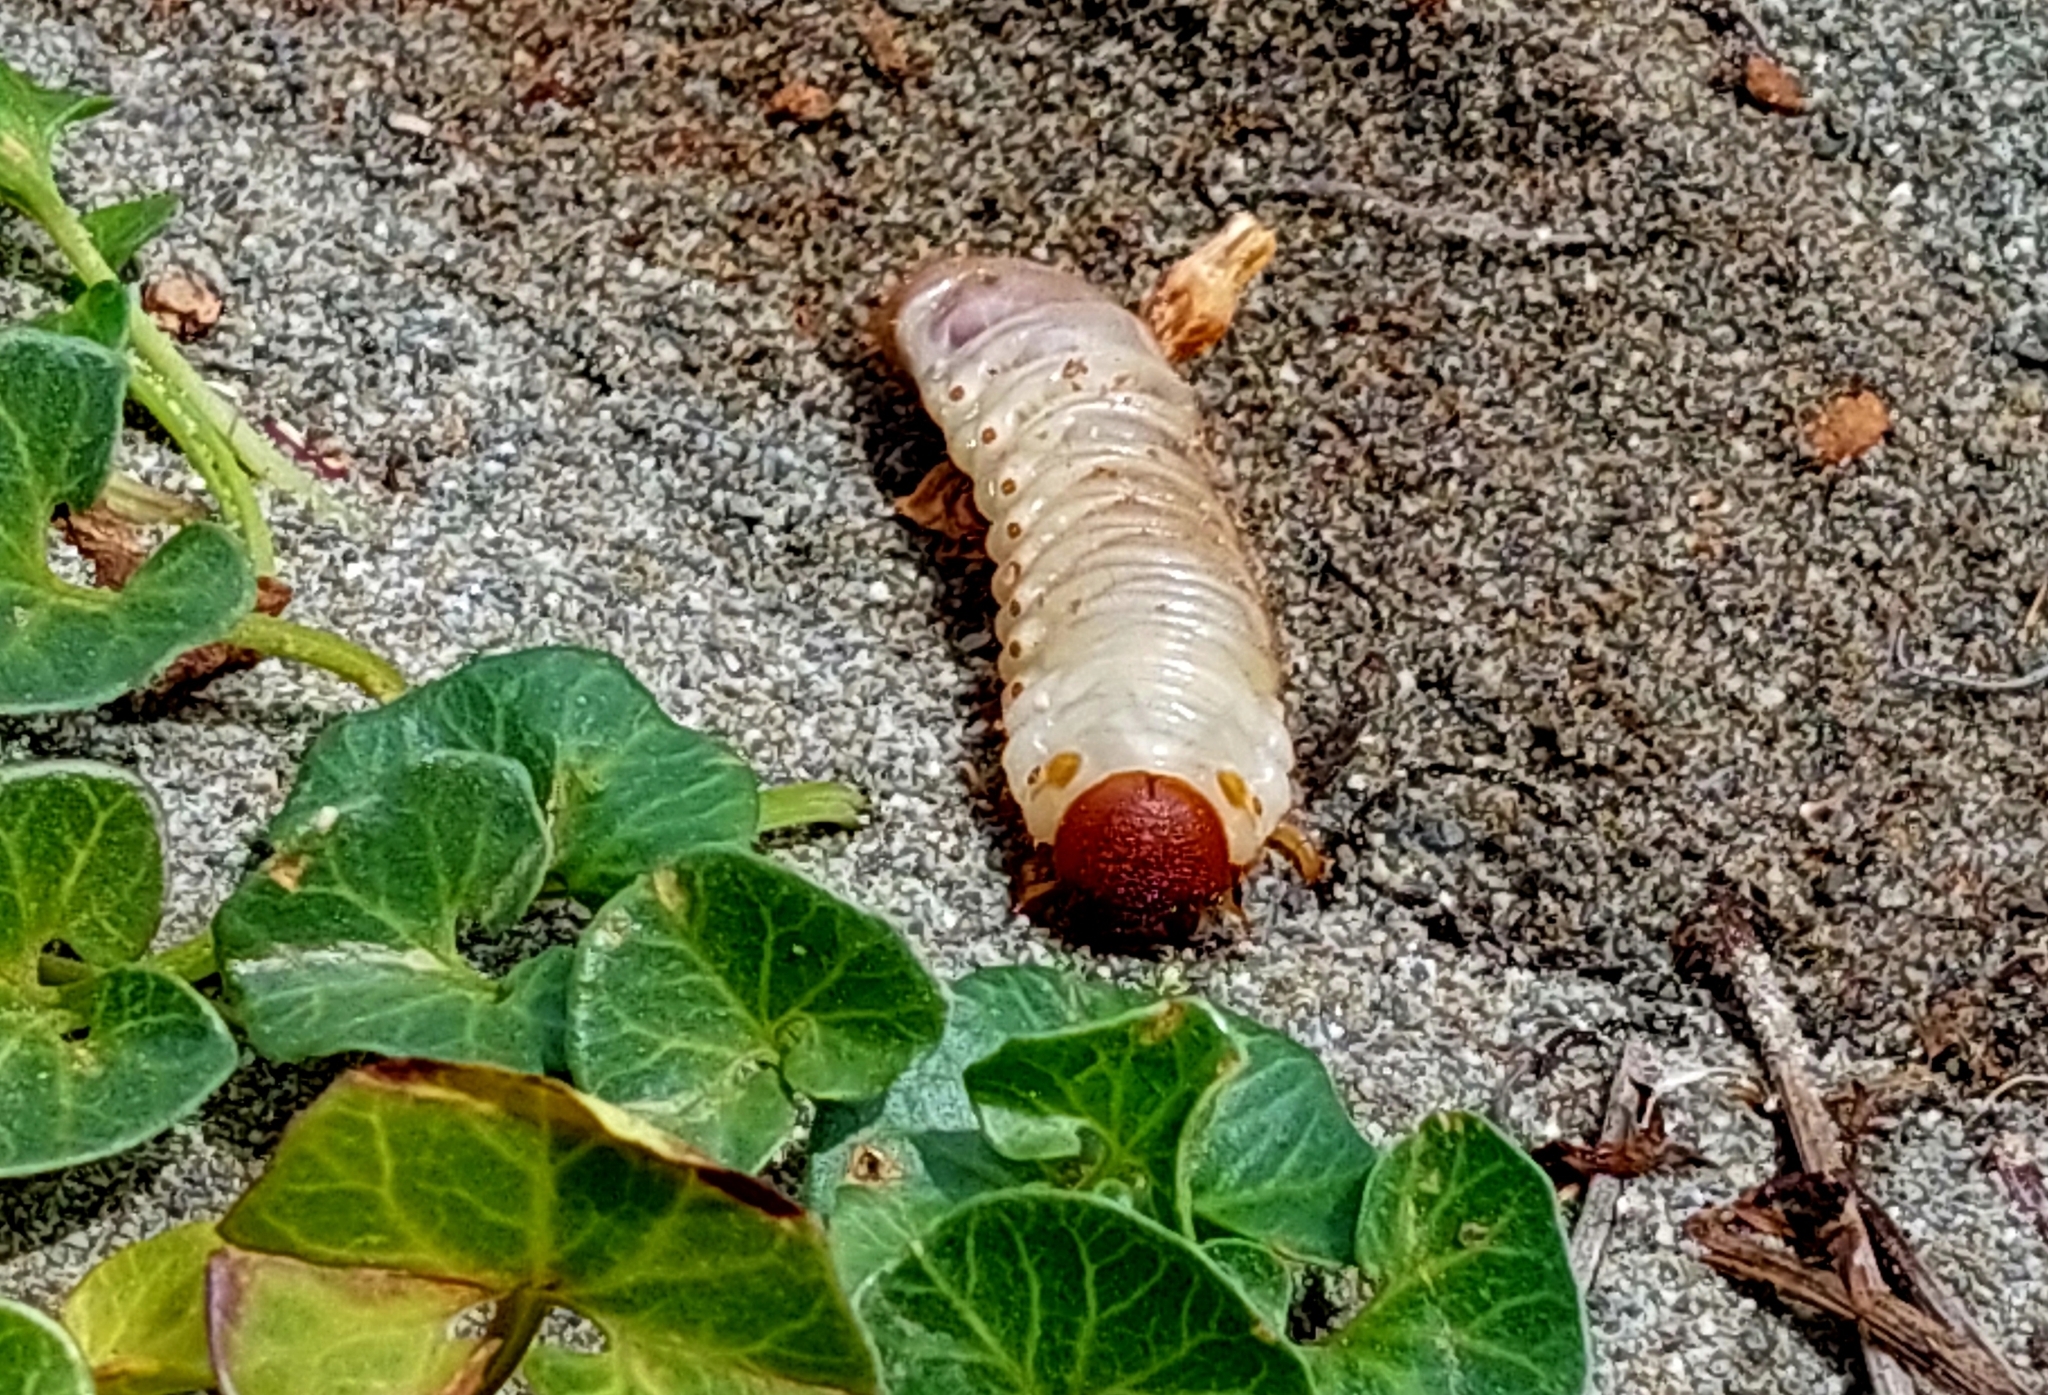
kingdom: Animalia
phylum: Arthropoda
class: Insecta
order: Coleoptera
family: Scarabaeidae
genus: Pericoptus
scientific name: Pericoptus truncatus
